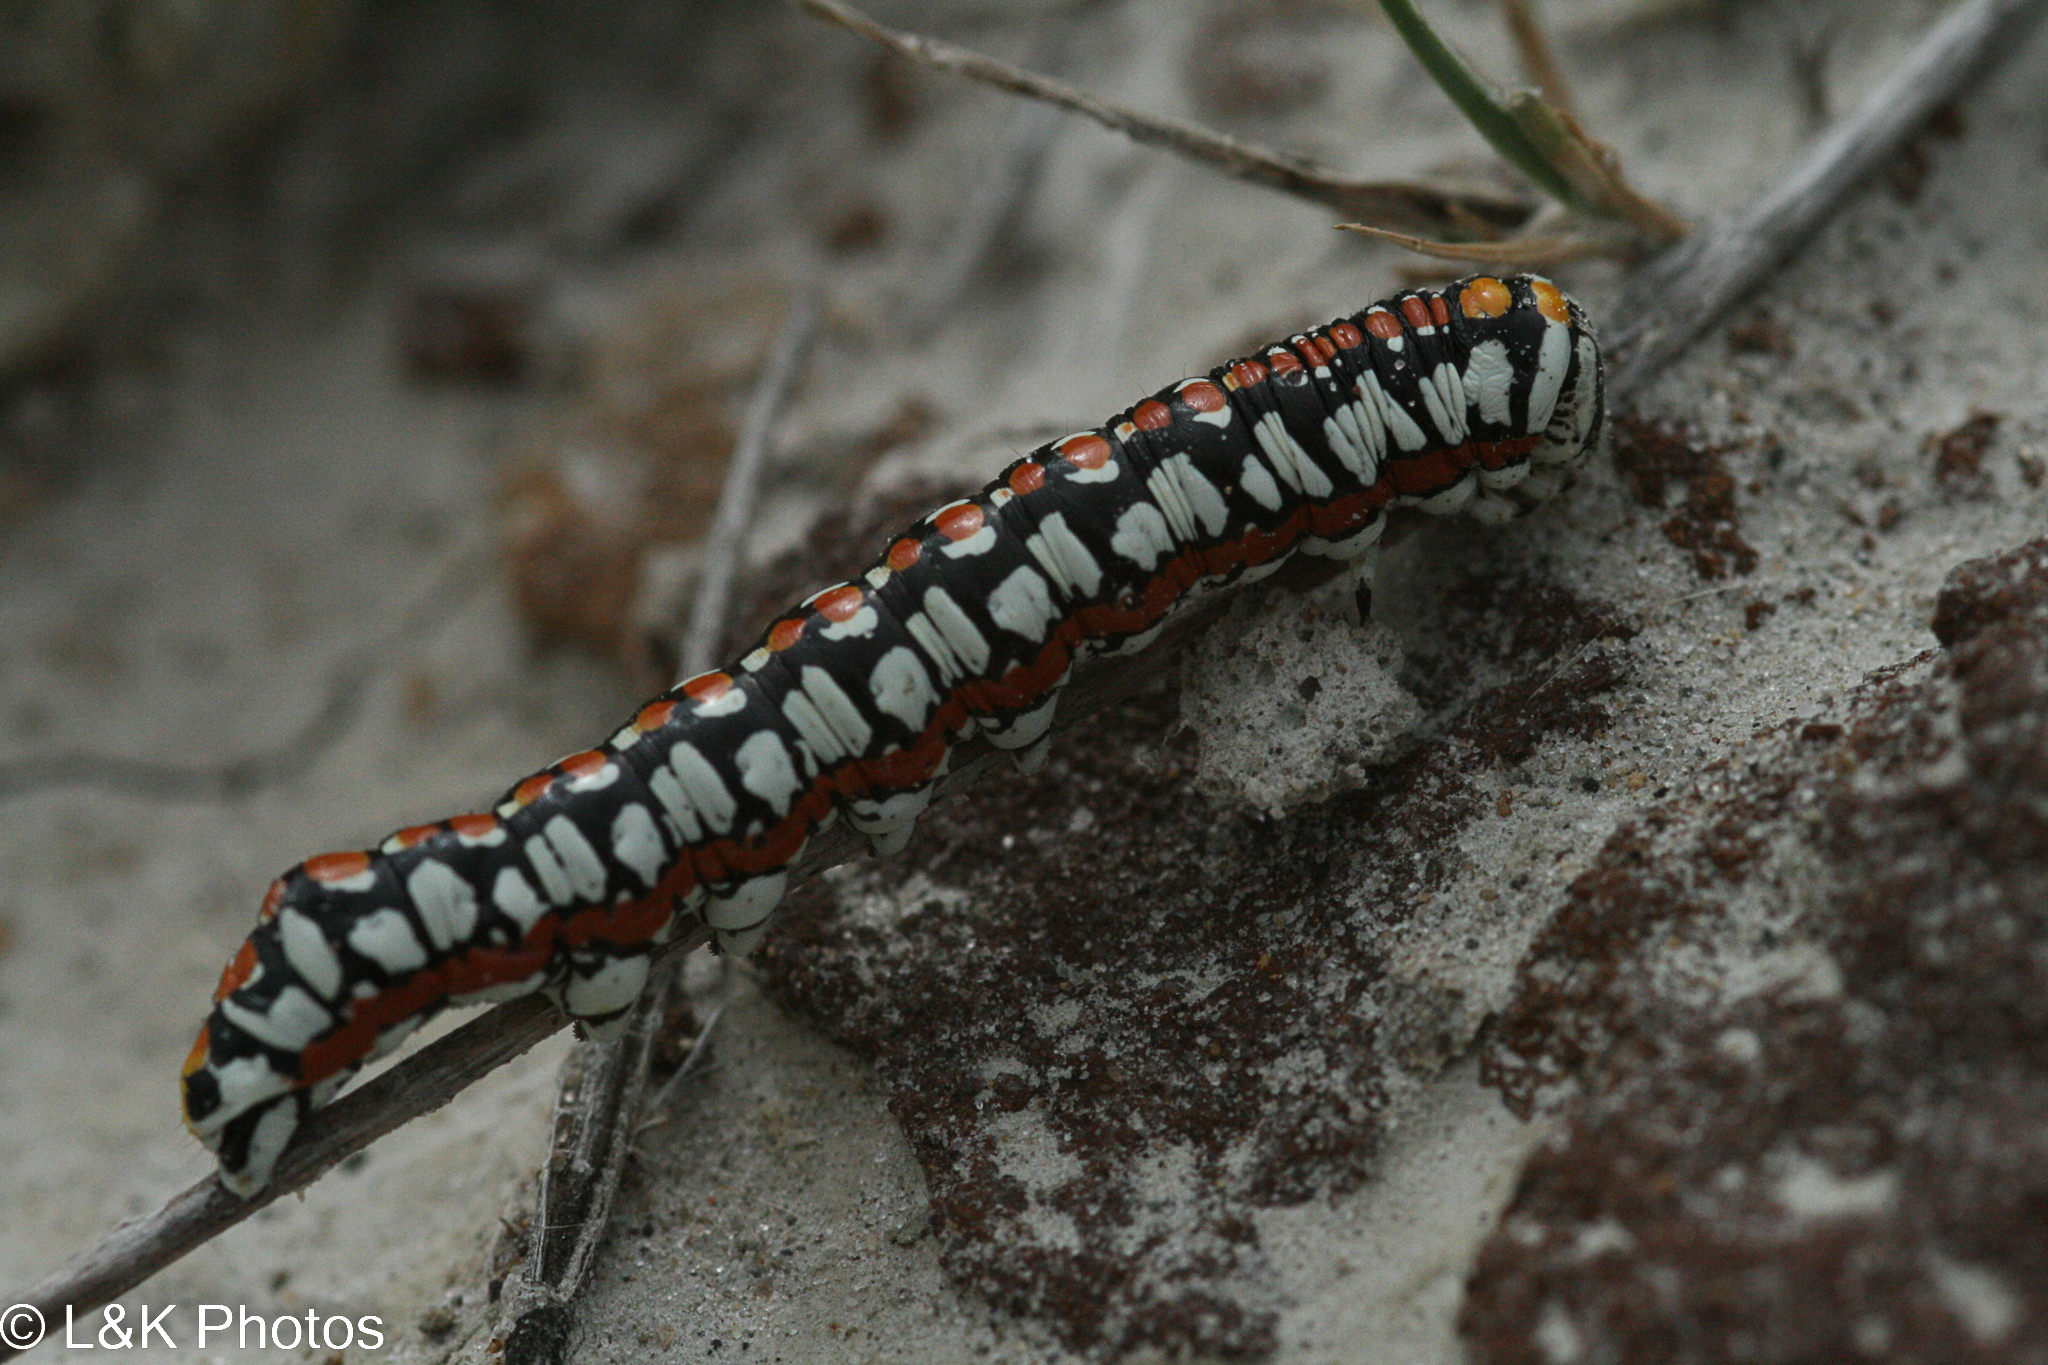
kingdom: Animalia
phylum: Arthropoda
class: Insecta
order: Lepidoptera
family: Noctuidae
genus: Cucullia
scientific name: Cucullia dorsalis
